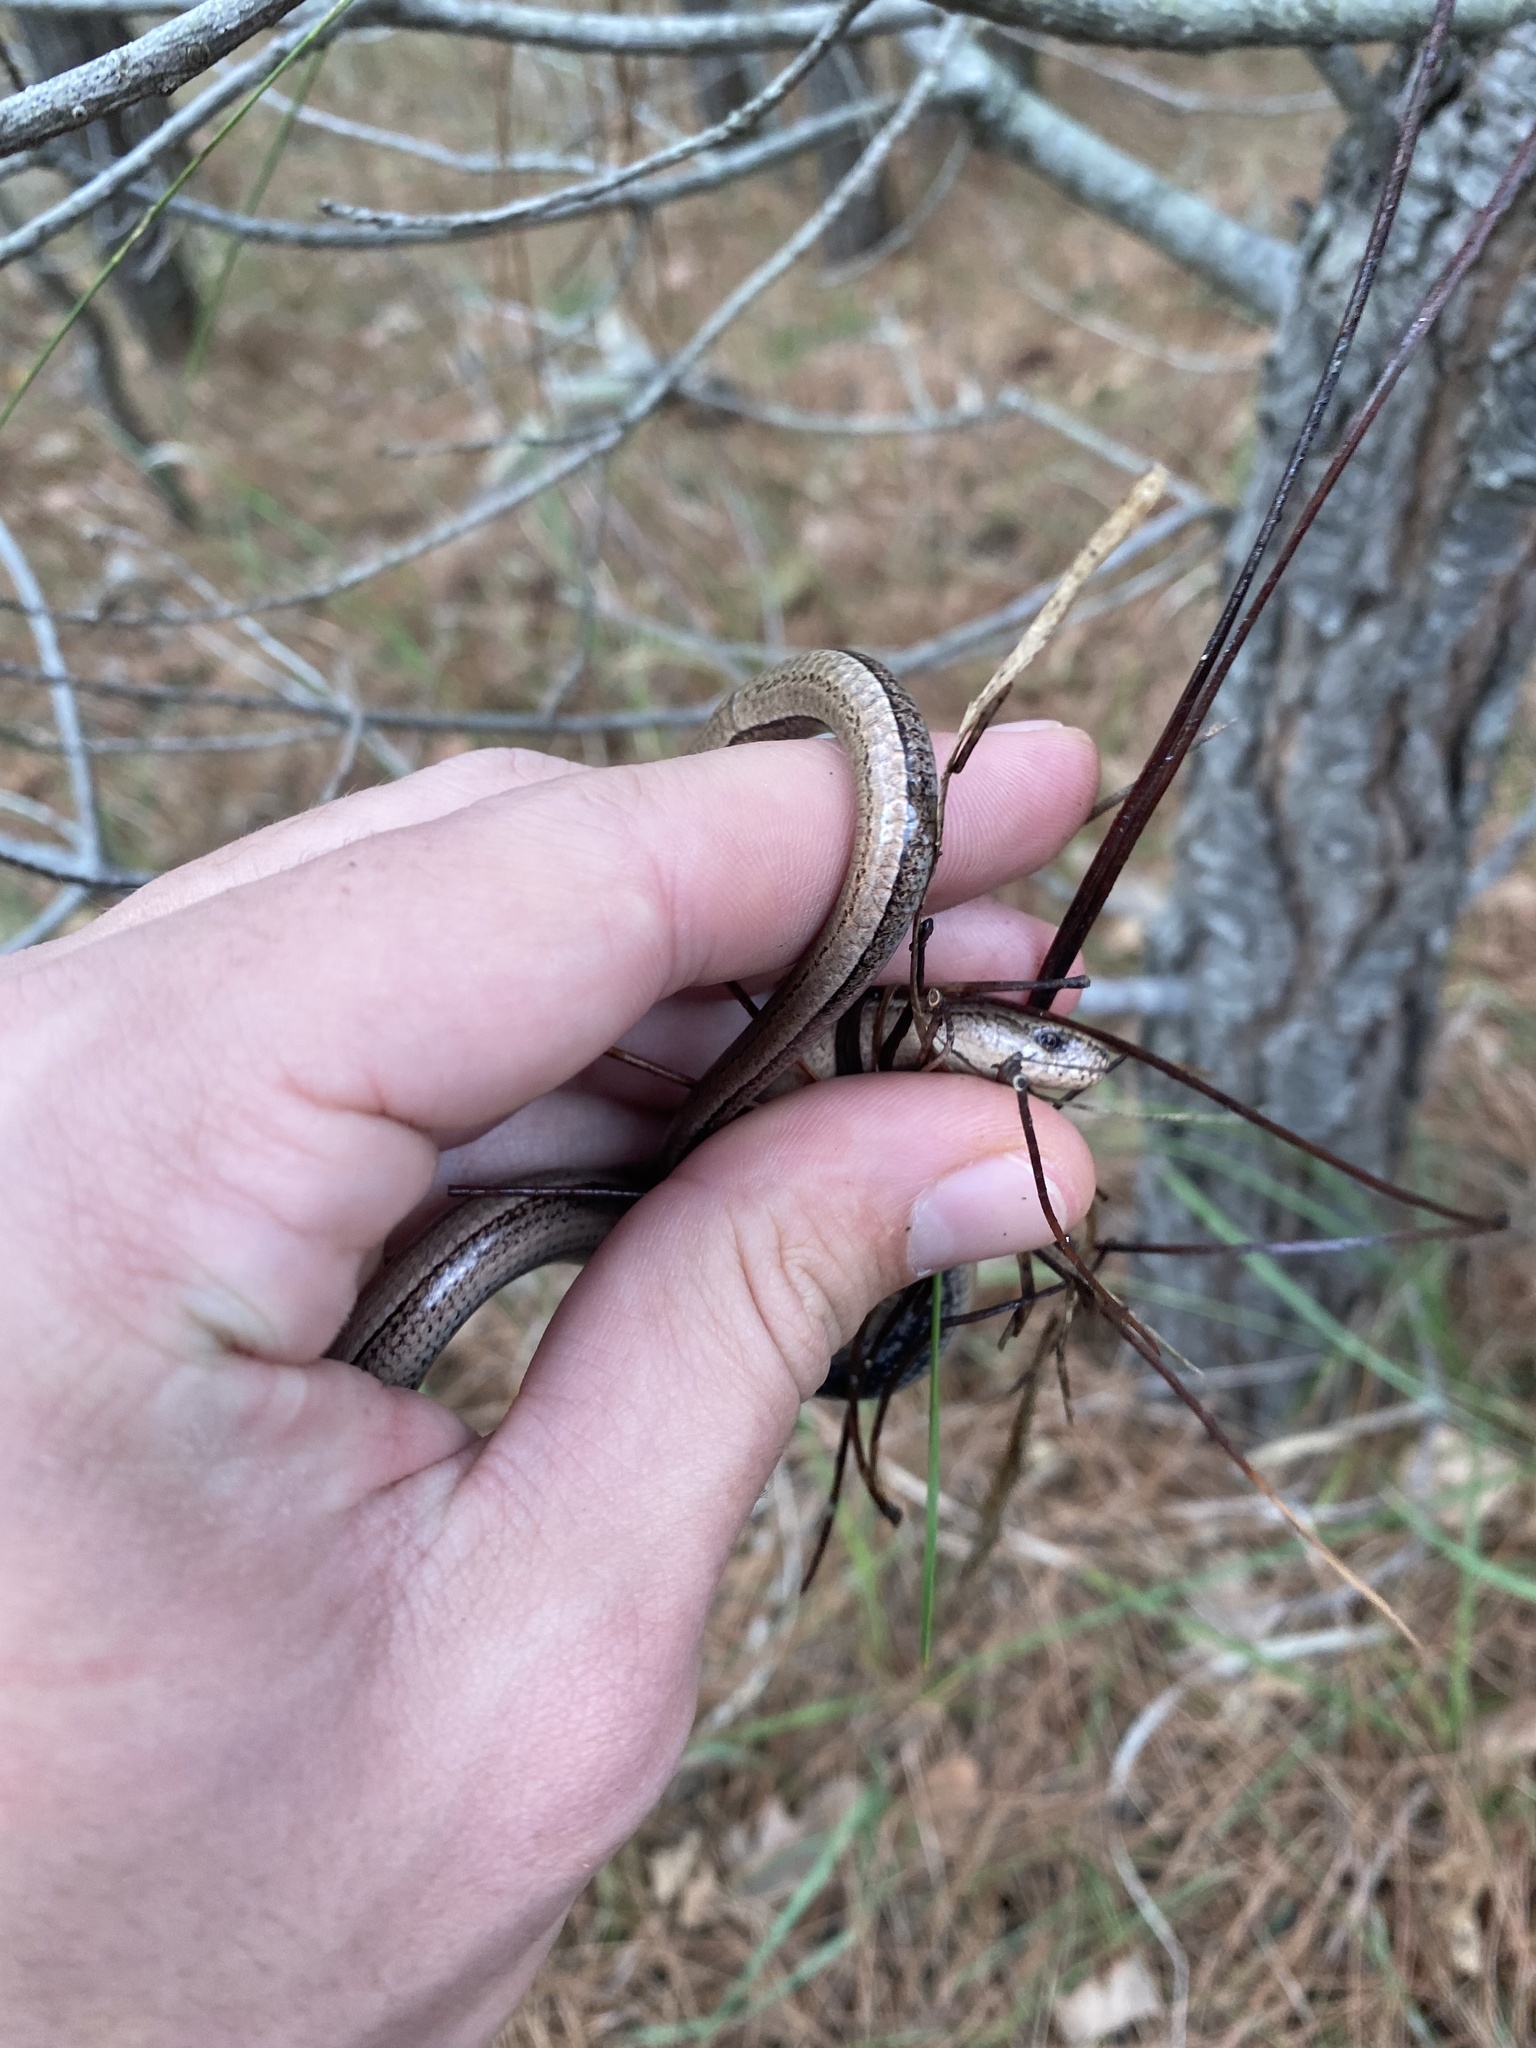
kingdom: Animalia
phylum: Chordata
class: Squamata
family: Anguidae
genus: Anguis
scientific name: Anguis colchica
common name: Slow worm
